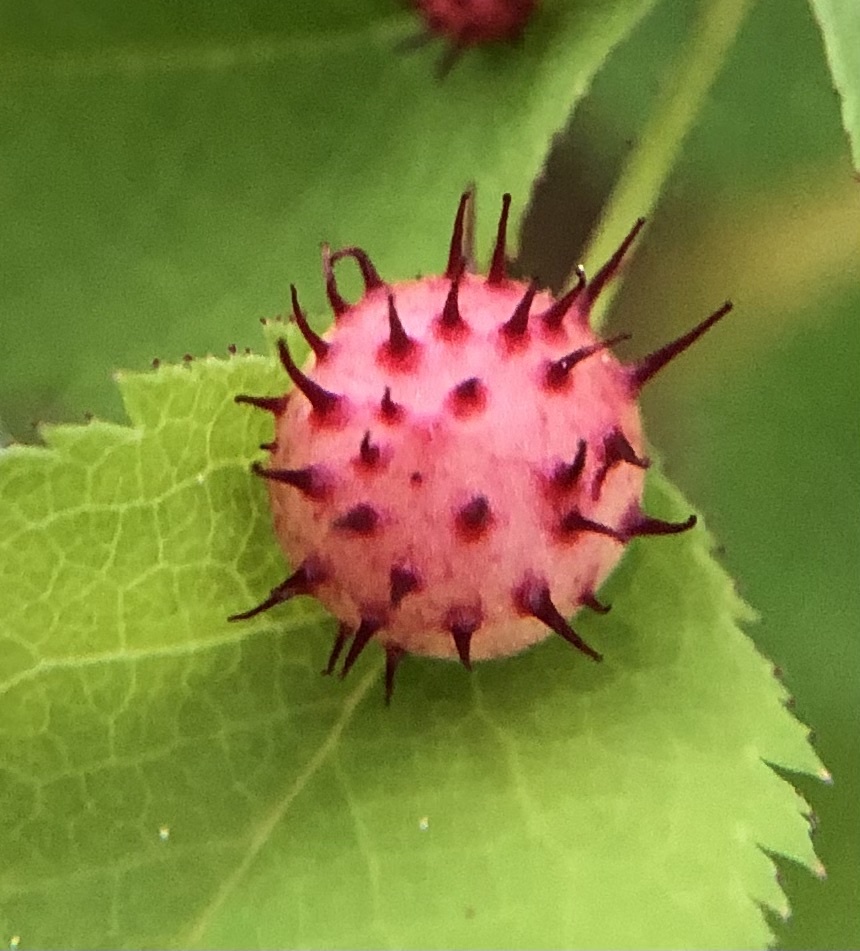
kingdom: Animalia
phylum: Arthropoda
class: Insecta
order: Hymenoptera
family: Cynipidae
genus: Diplolepis
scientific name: Diplolepis polita
